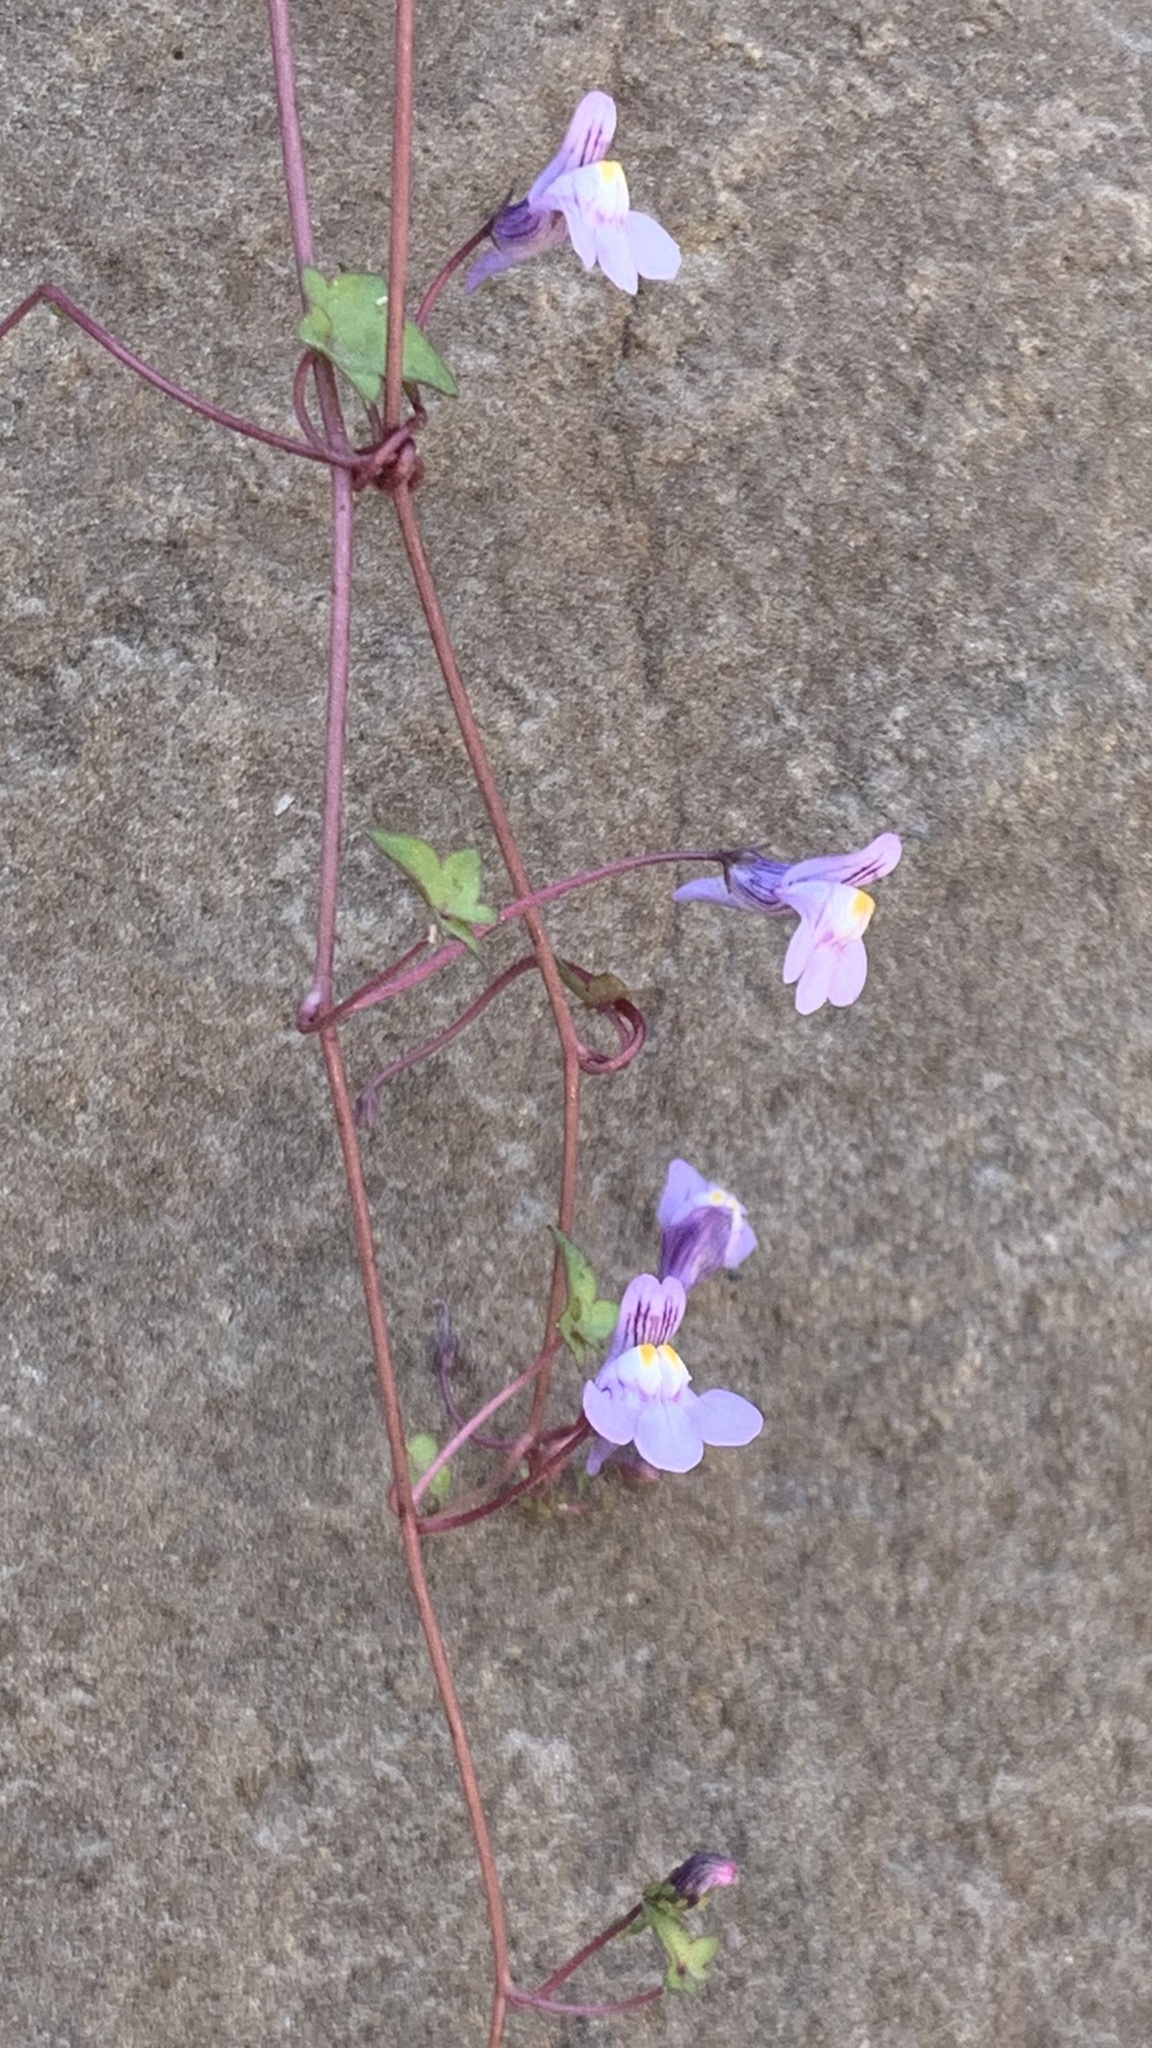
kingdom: Plantae
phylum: Tracheophyta
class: Magnoliopsida
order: Lamiales
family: Plantaginaceae
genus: Cymbalaria
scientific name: Cymbalaria muralis
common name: Ivy-leaved toadflax
